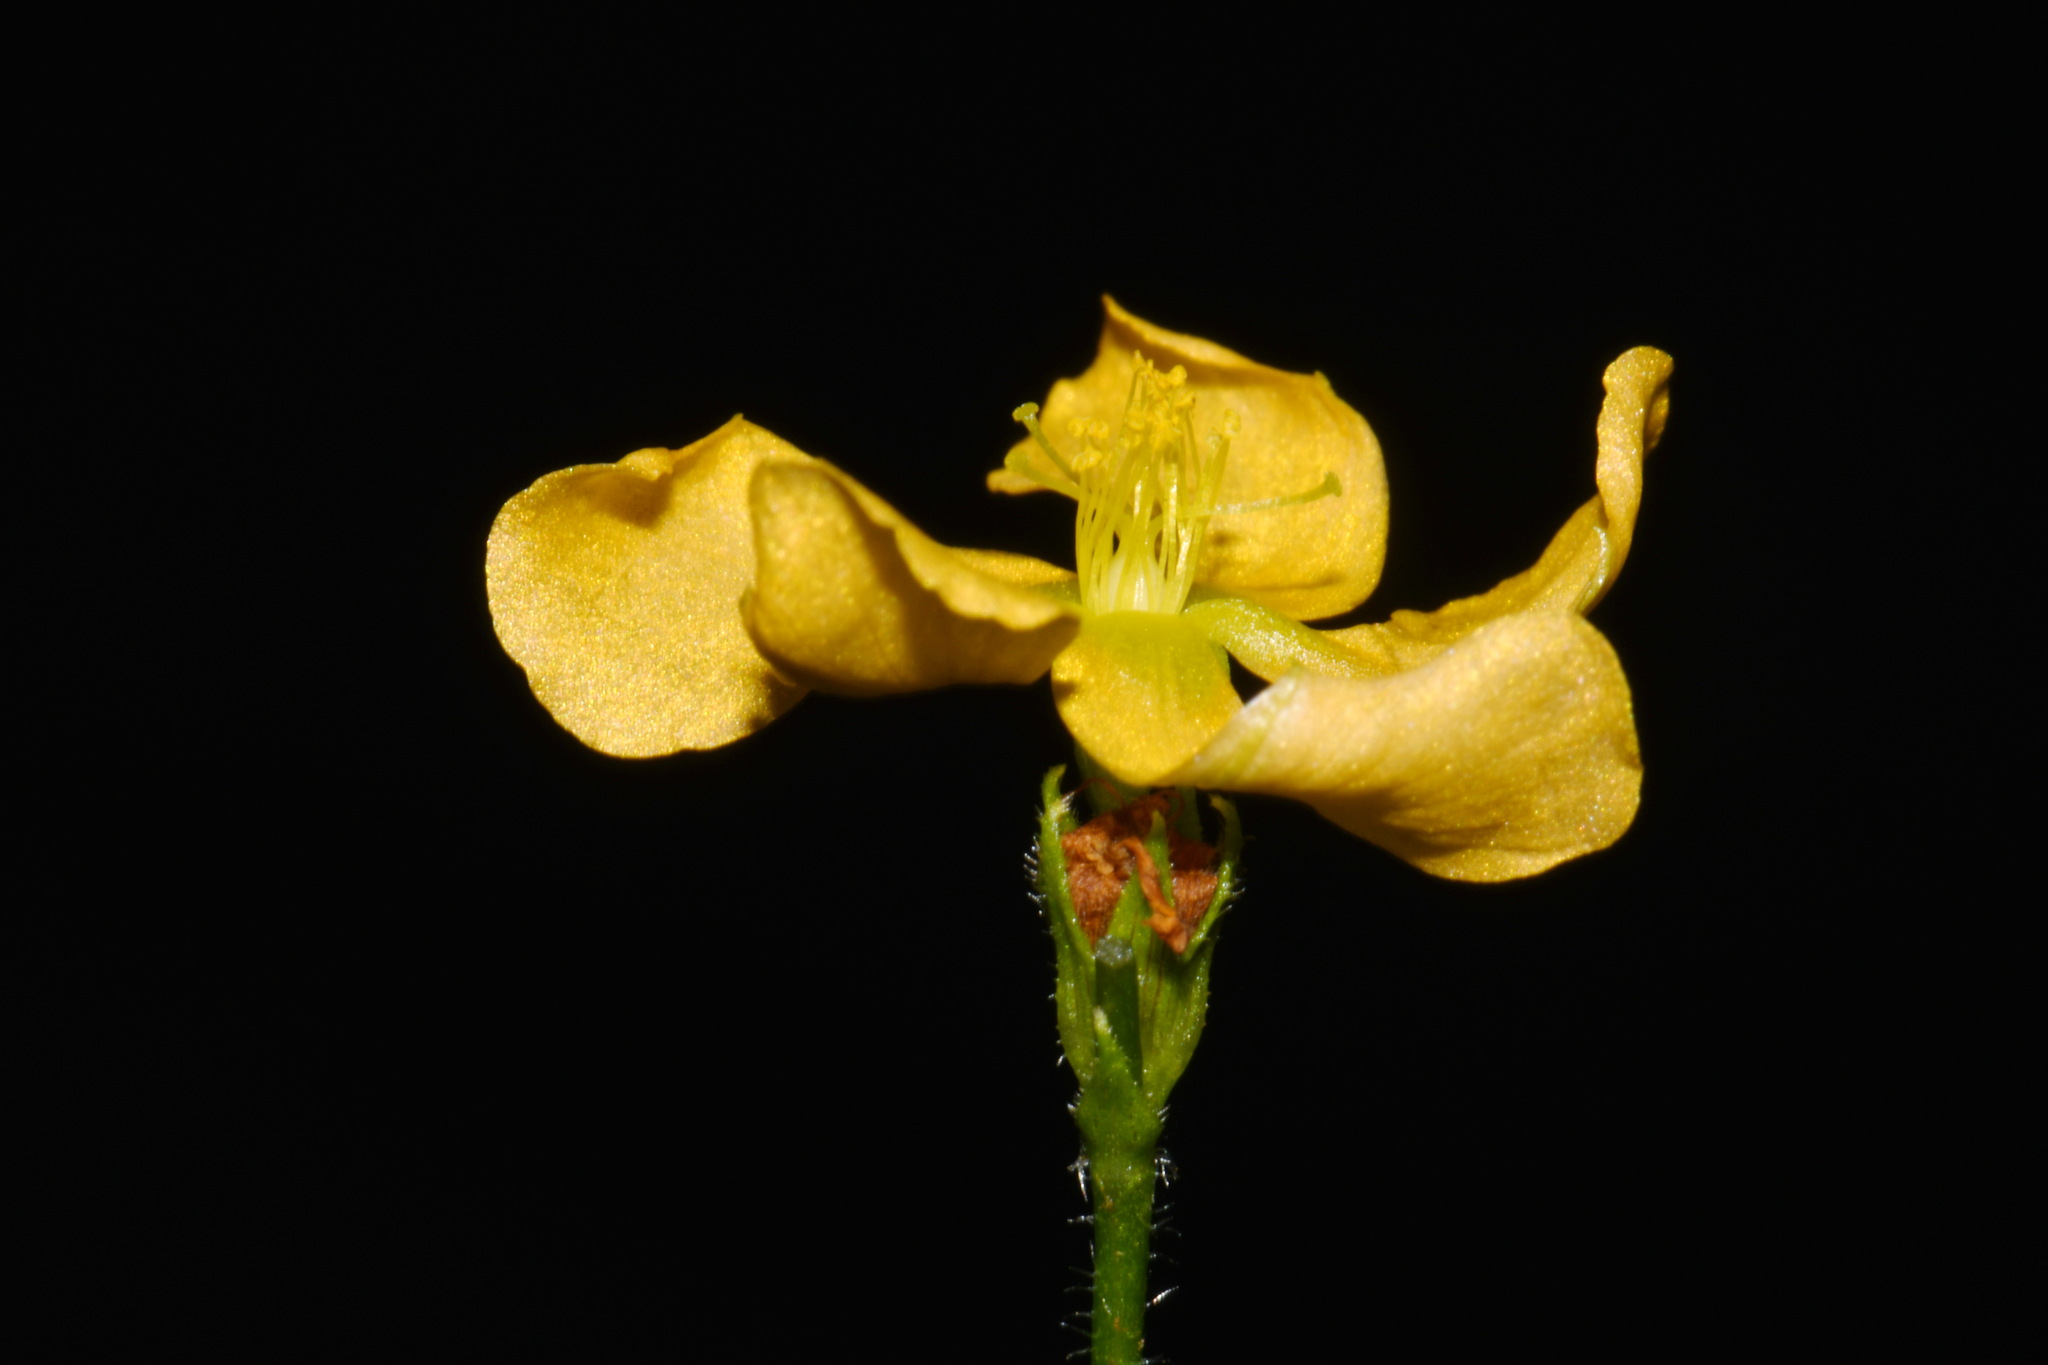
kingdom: Plantae
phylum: Tracheophyta
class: Magnoliopsida
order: Malpighiales
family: Hypericaceae
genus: Hypericum
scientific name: Hypericum setosum
